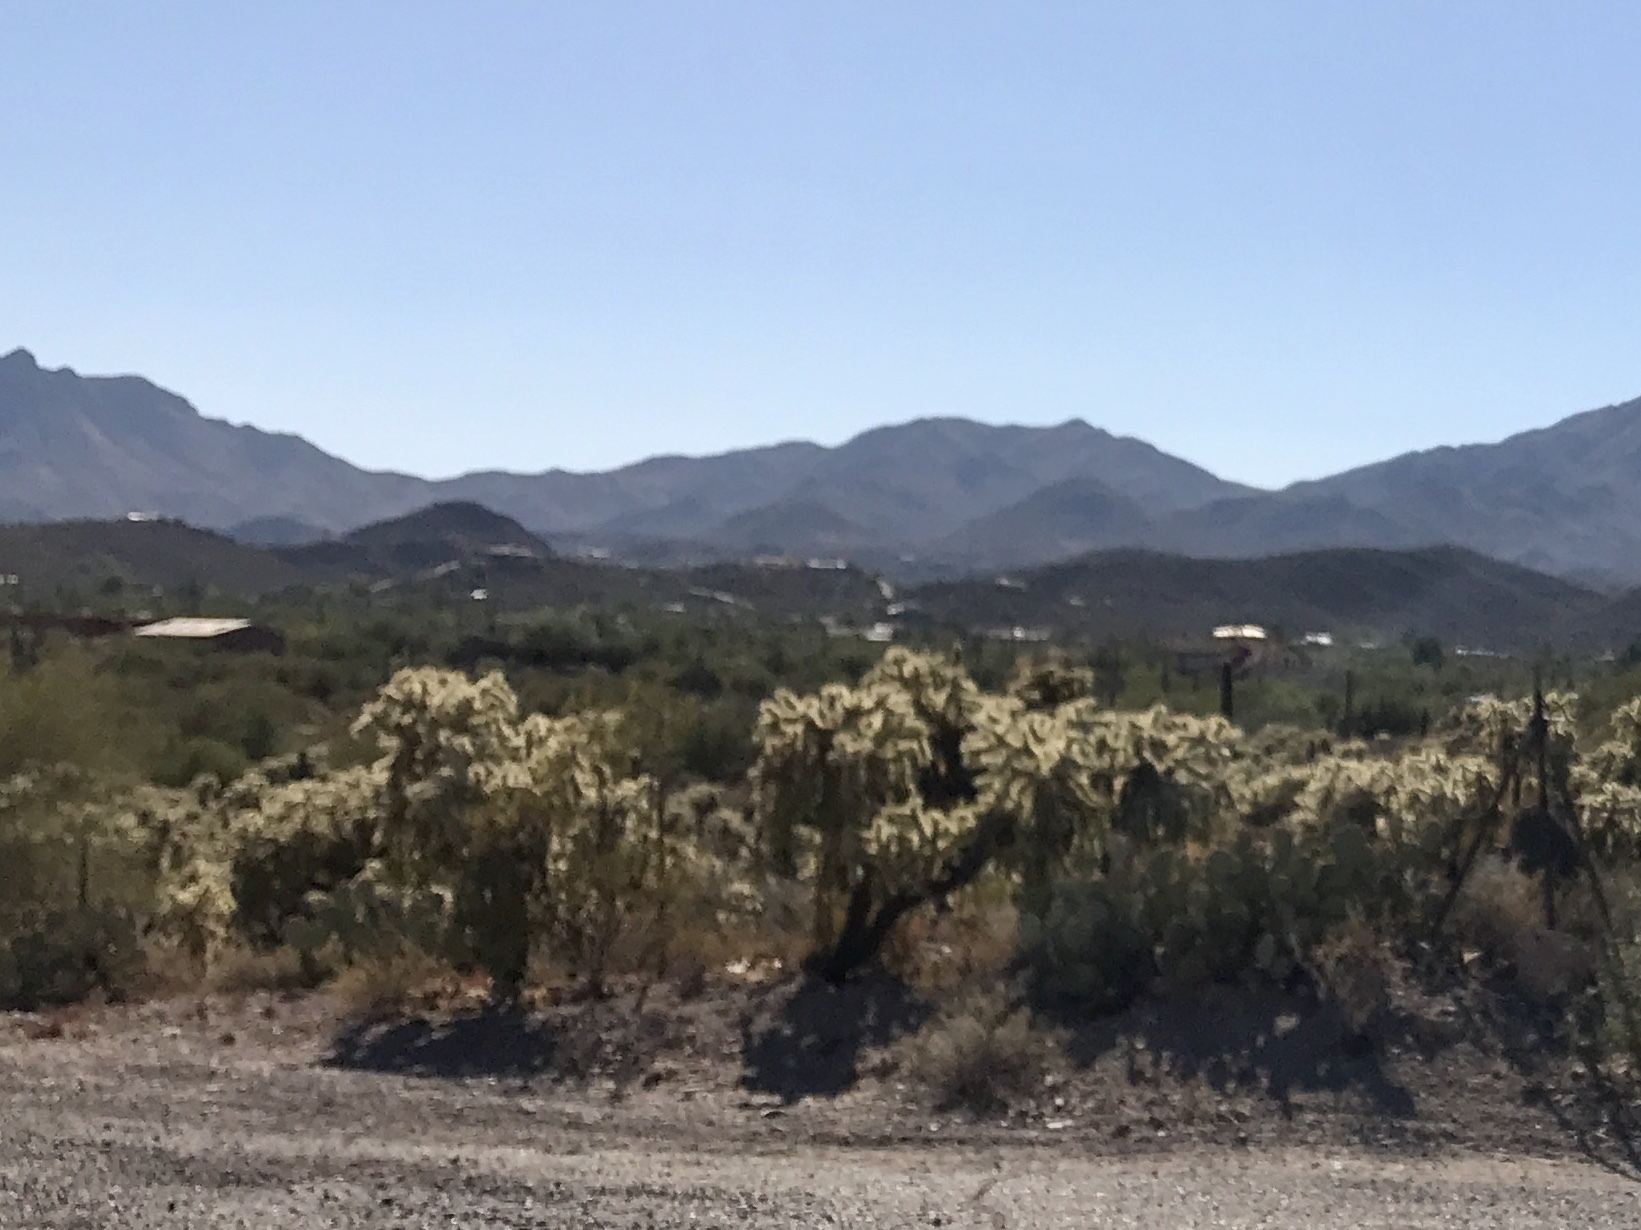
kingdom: Plantae
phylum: Tracheophyta
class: Magnoliopsida
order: Caryophyllales
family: Cactaceae
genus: Cylindropuntia
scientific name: Cylindropuntia fulgida
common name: Jumping cholla
